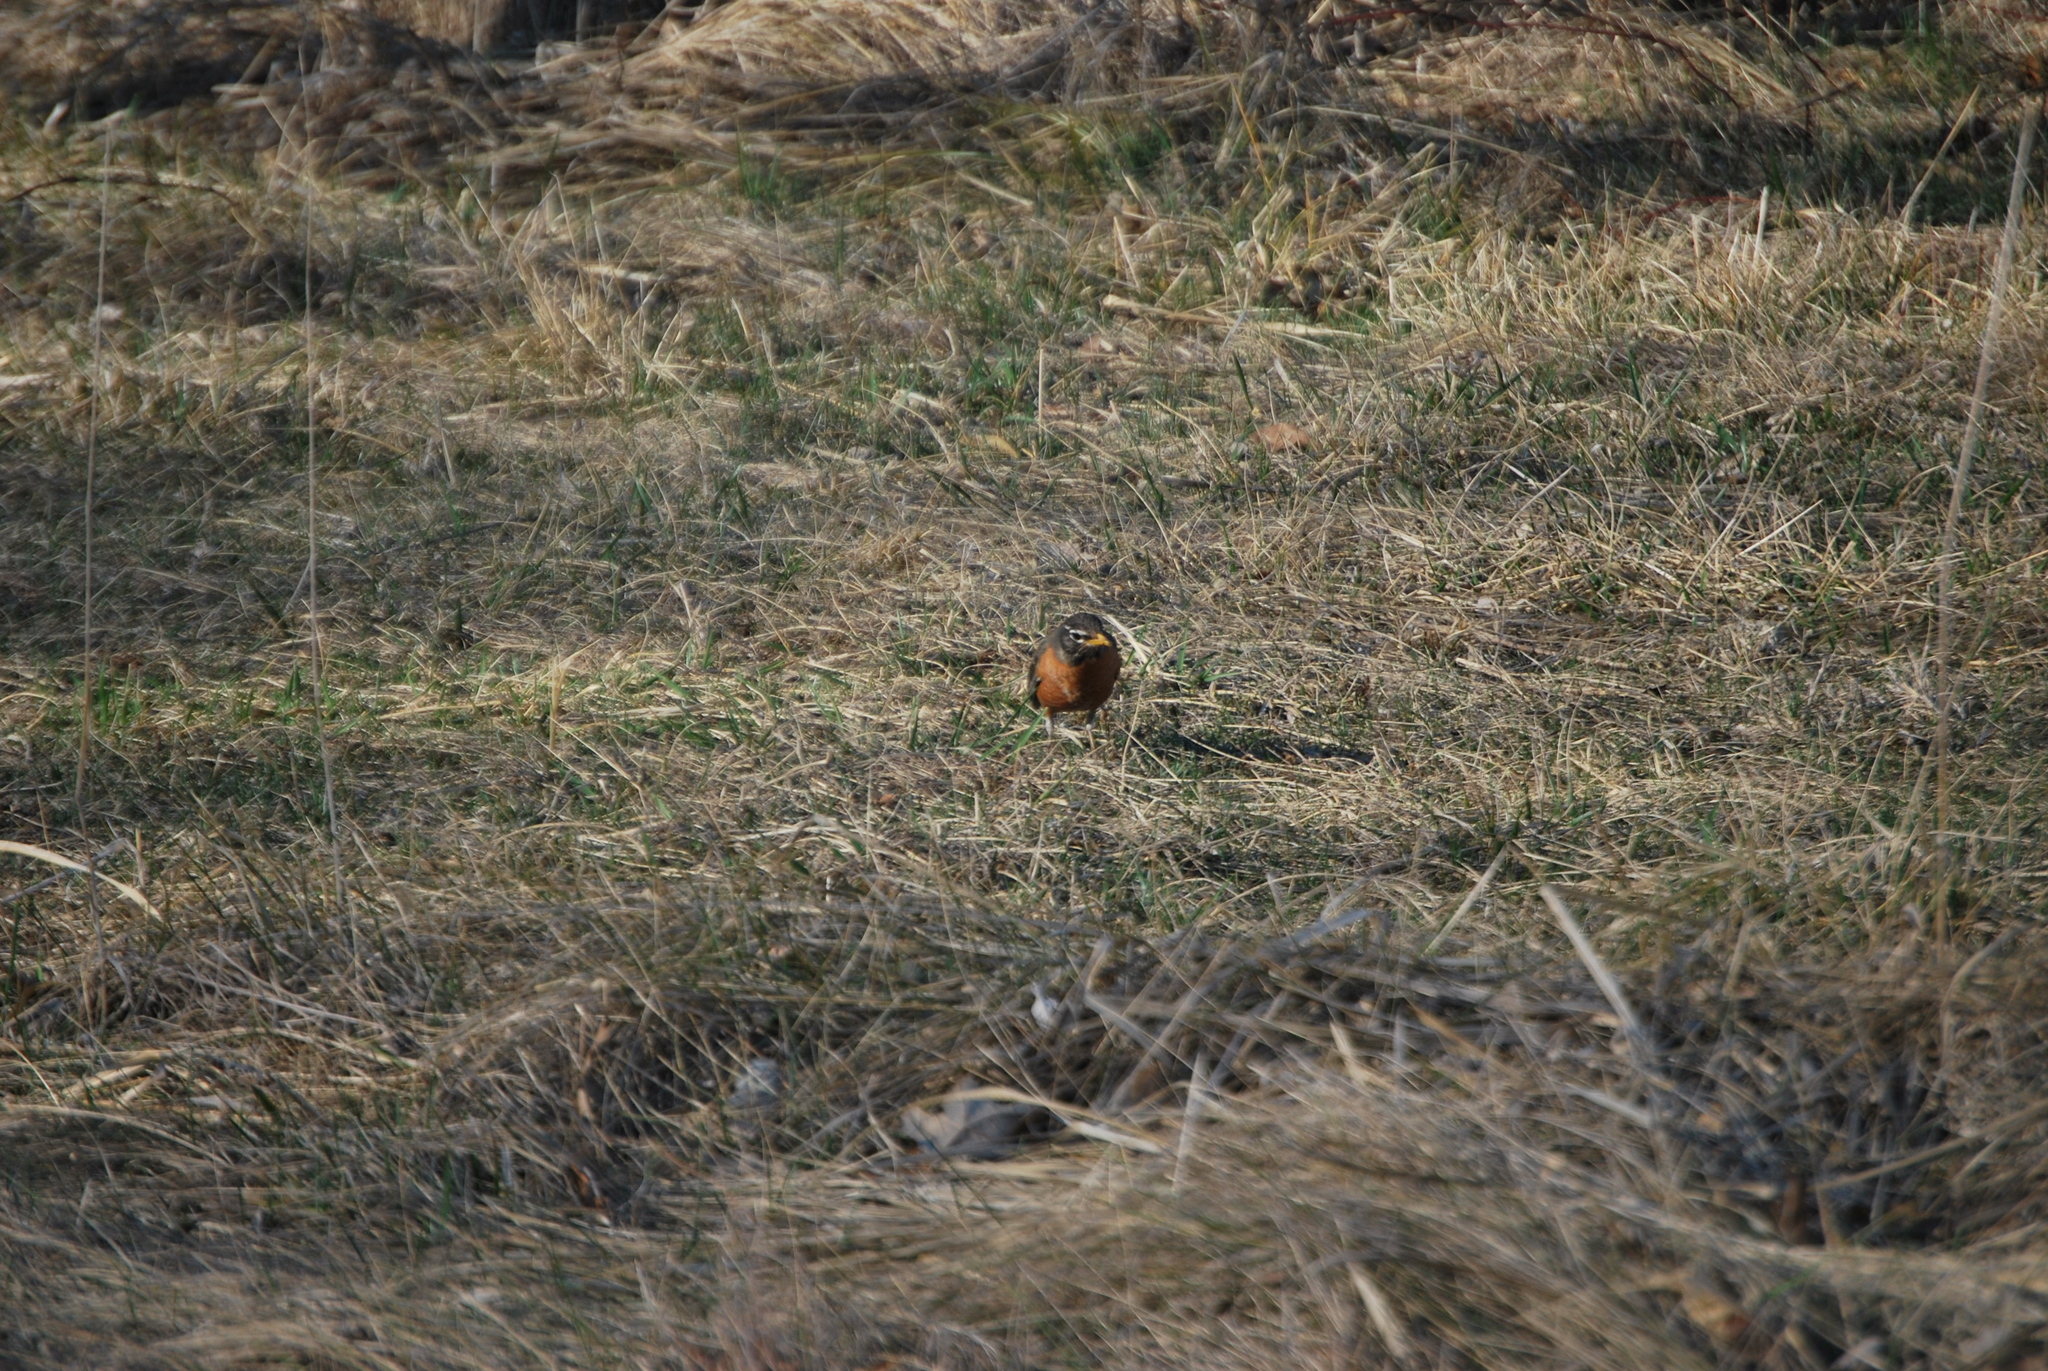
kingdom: Animalia
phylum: Chordata
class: Aves
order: Passeriformes
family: Turdidae
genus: Turdus
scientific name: Turdus migratorius
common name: American robin
